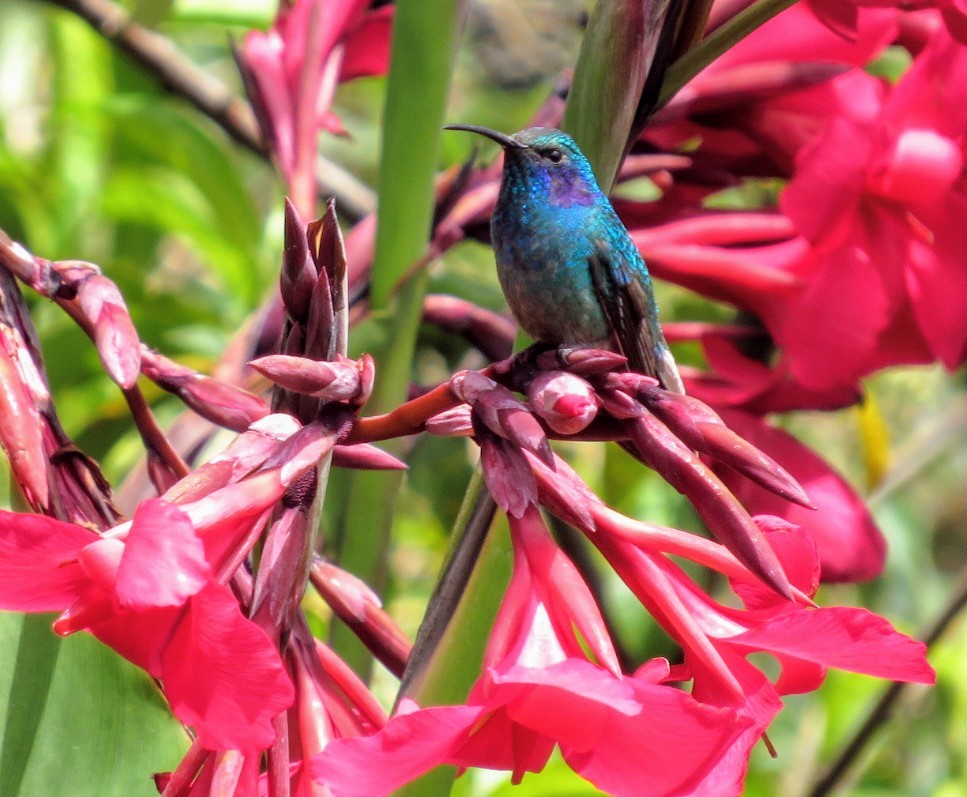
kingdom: Animalia
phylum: Chordata
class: Aves
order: Apodiformes
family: Trochilidae
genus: Colibri
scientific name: Colibri cyanotus
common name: Lesser violetear
